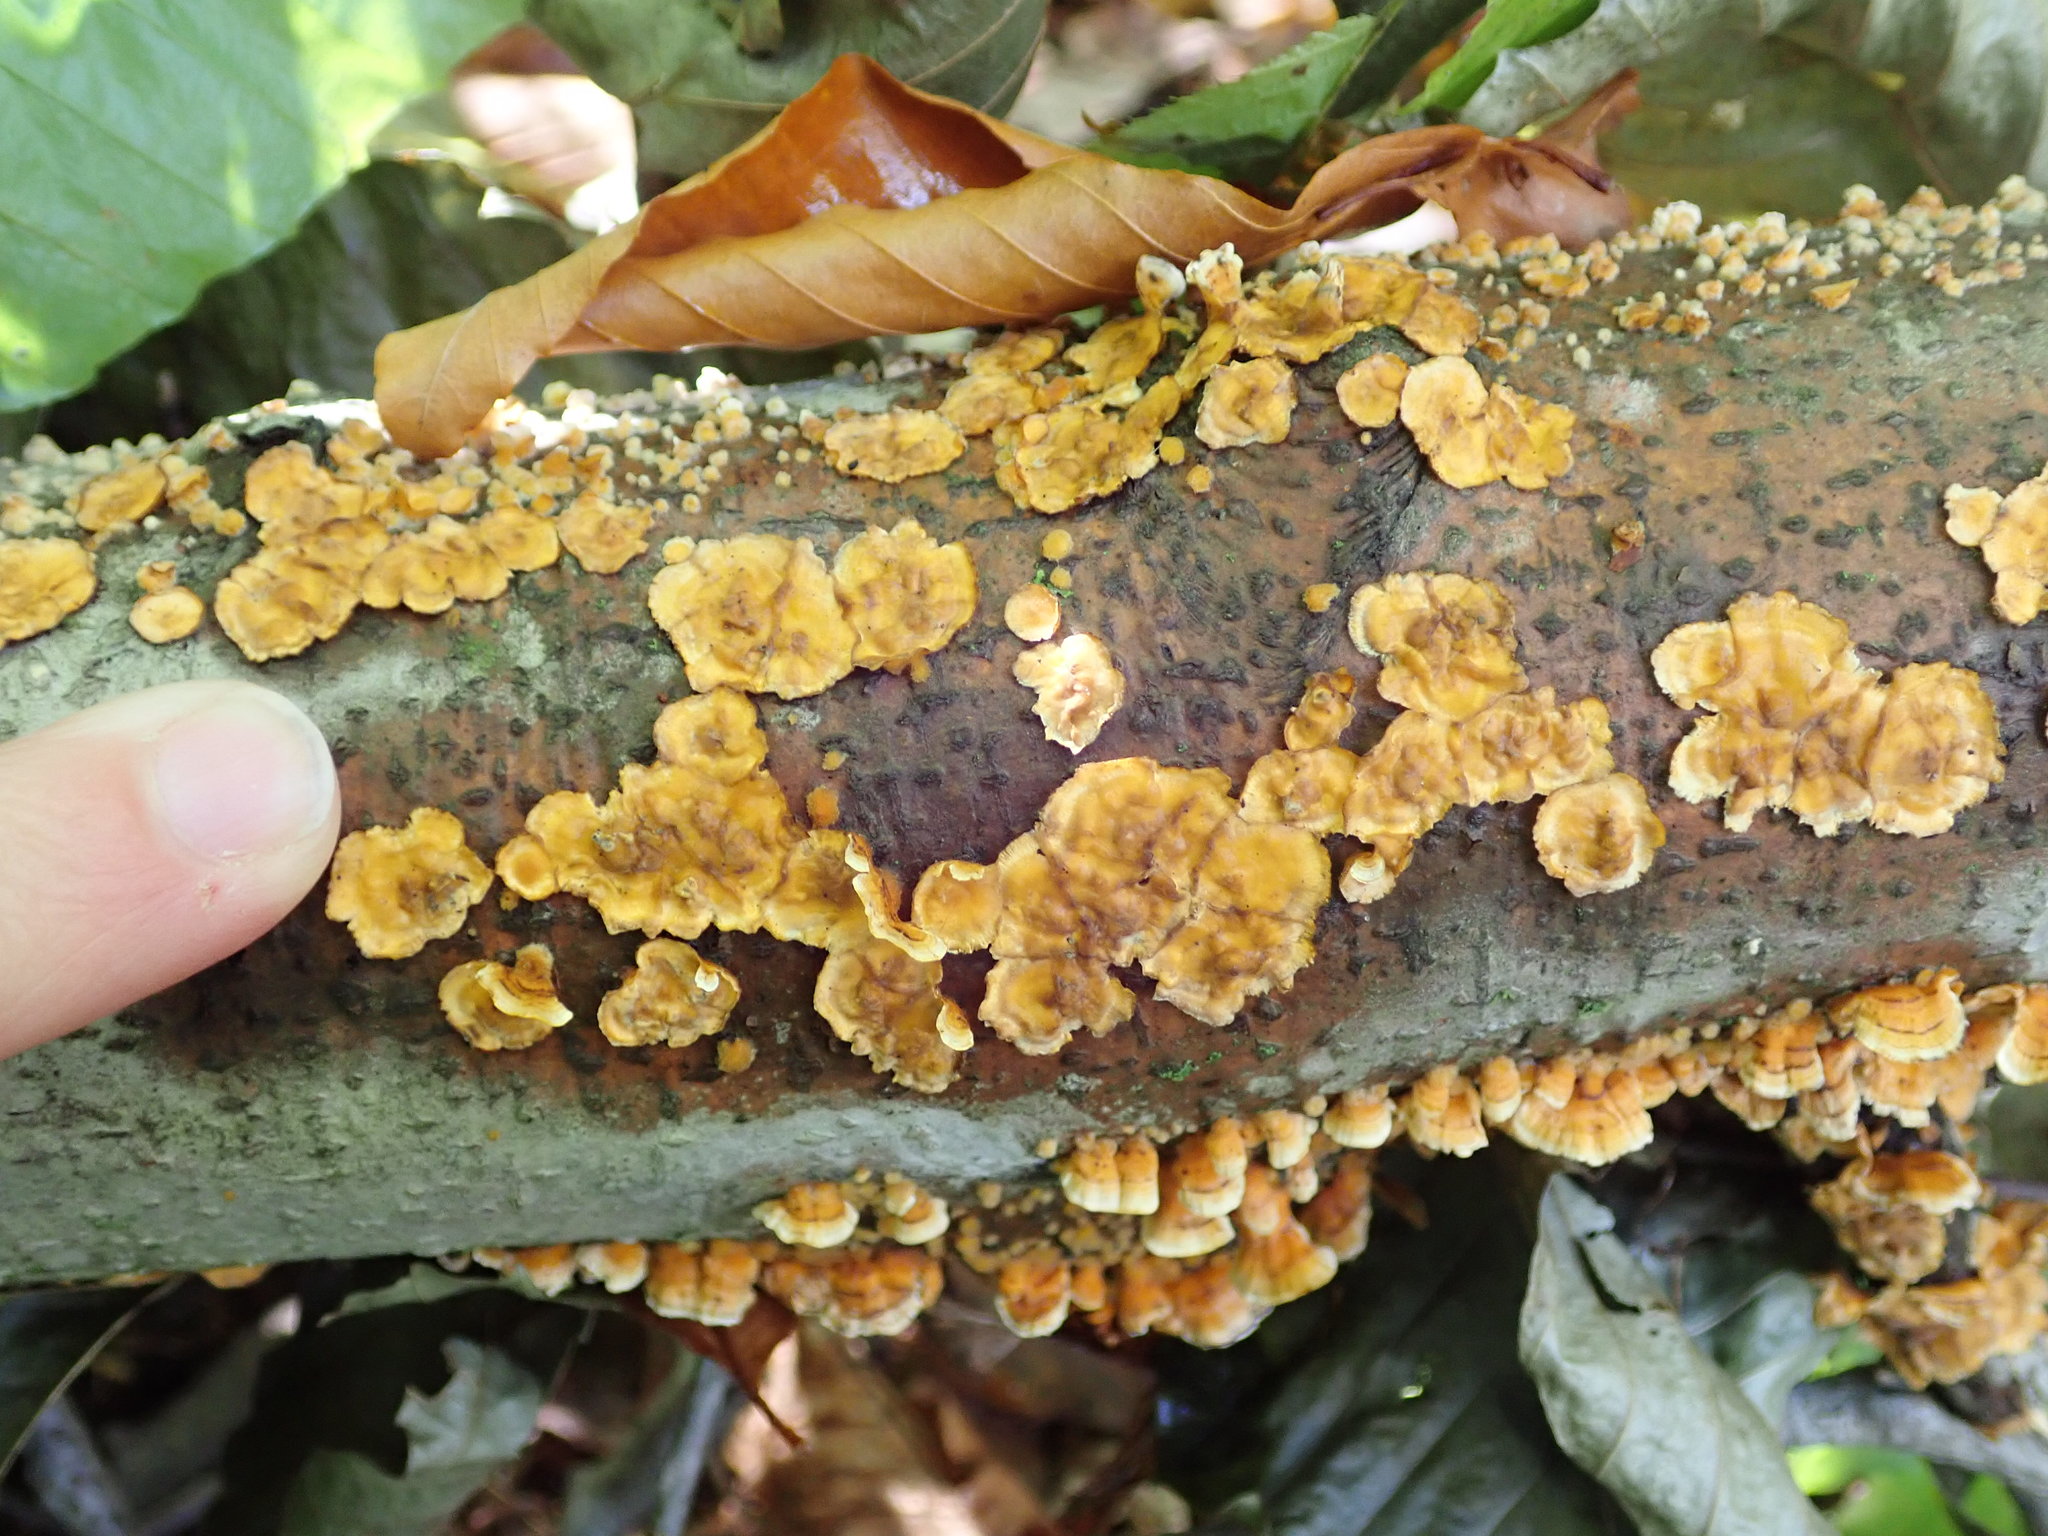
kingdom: Fungi
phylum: Basidiomycota
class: Agaricomycetes
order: Russulales
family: Stereaceae
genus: Stereum
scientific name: Stereum complicatum
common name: Crowded parchment
